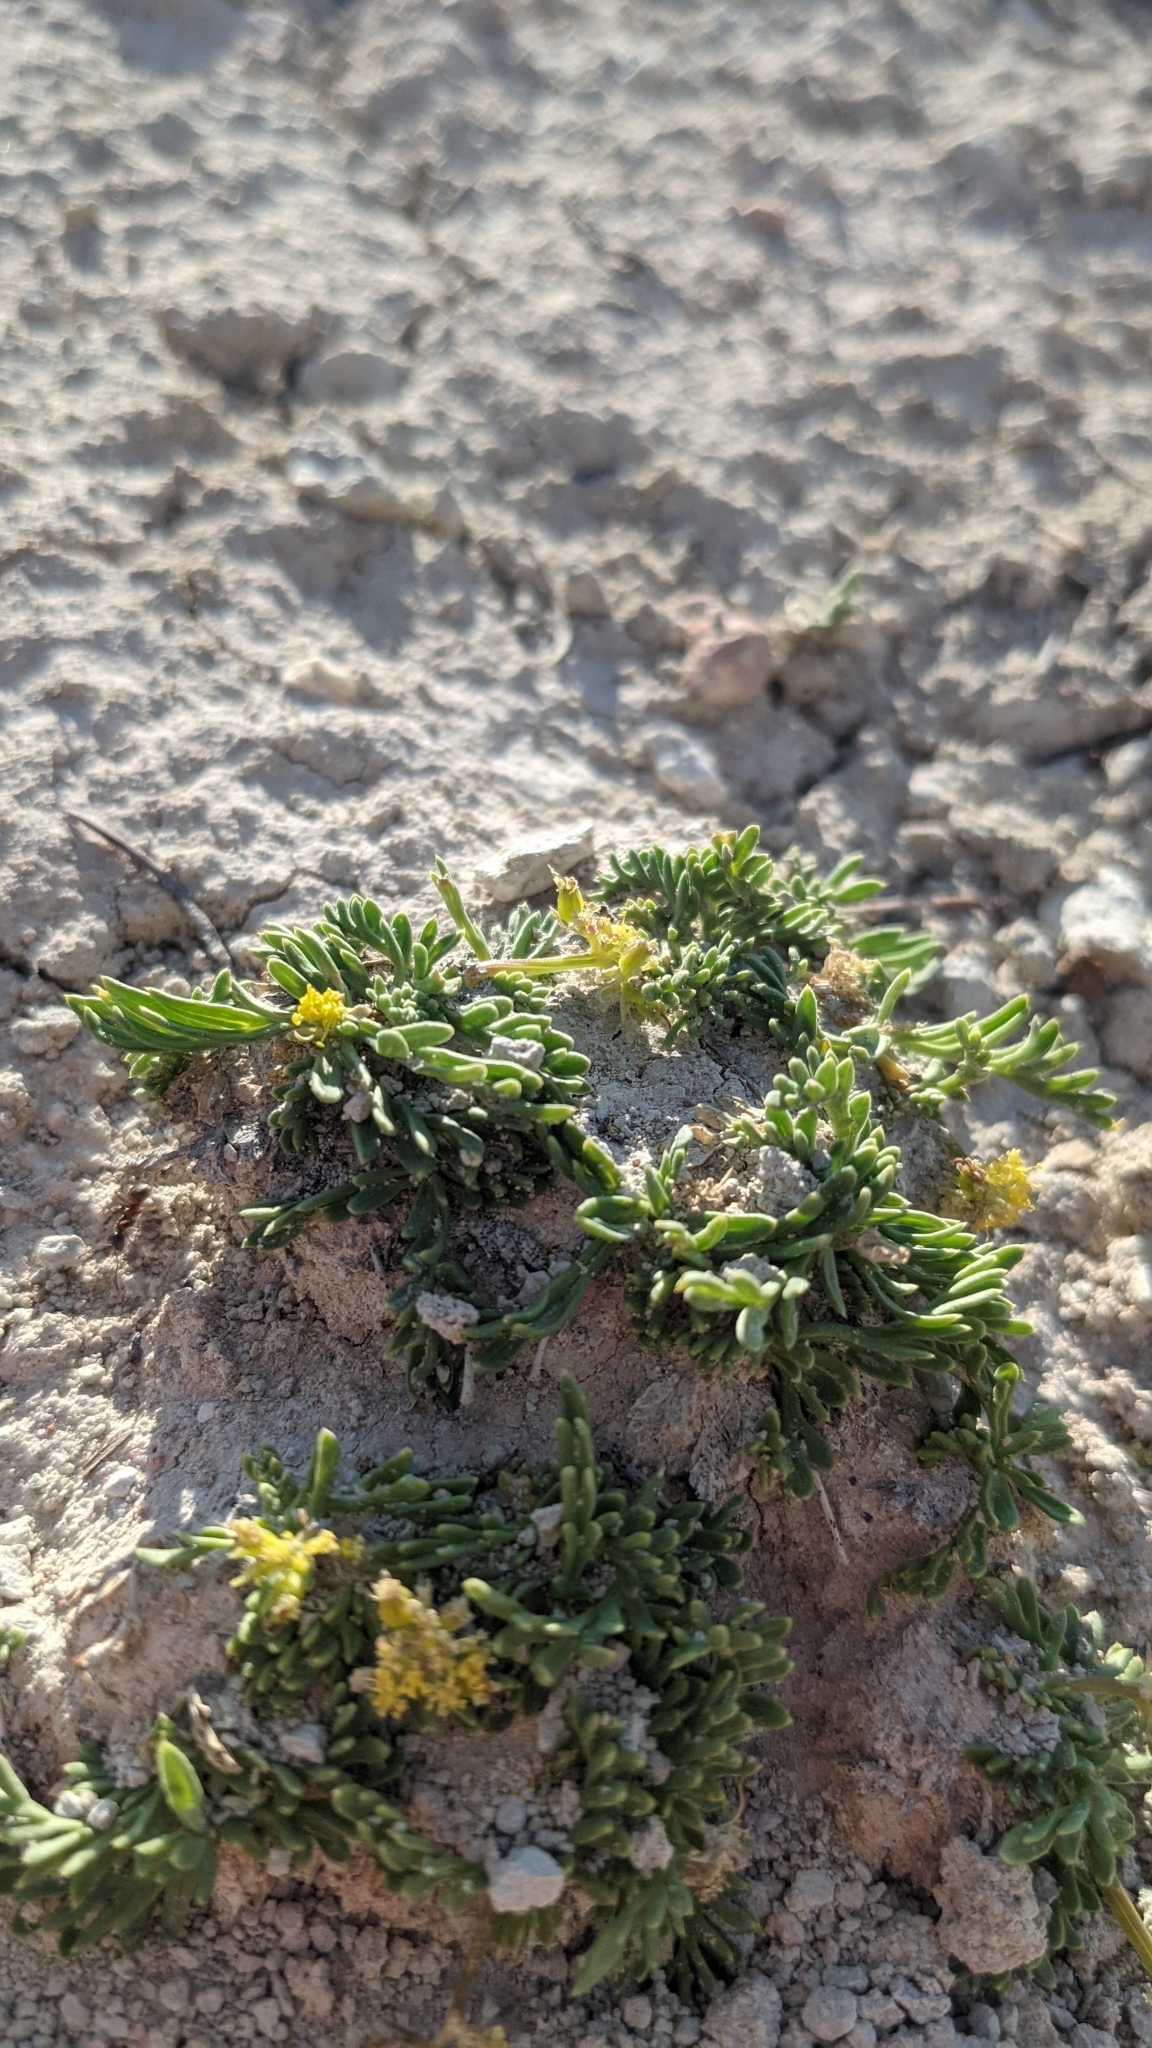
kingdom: Plantae
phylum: Tracheophyta
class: Magnoliopsida
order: Apiales
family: Apiaceae
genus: Lomatium
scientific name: Lomatium minimum
